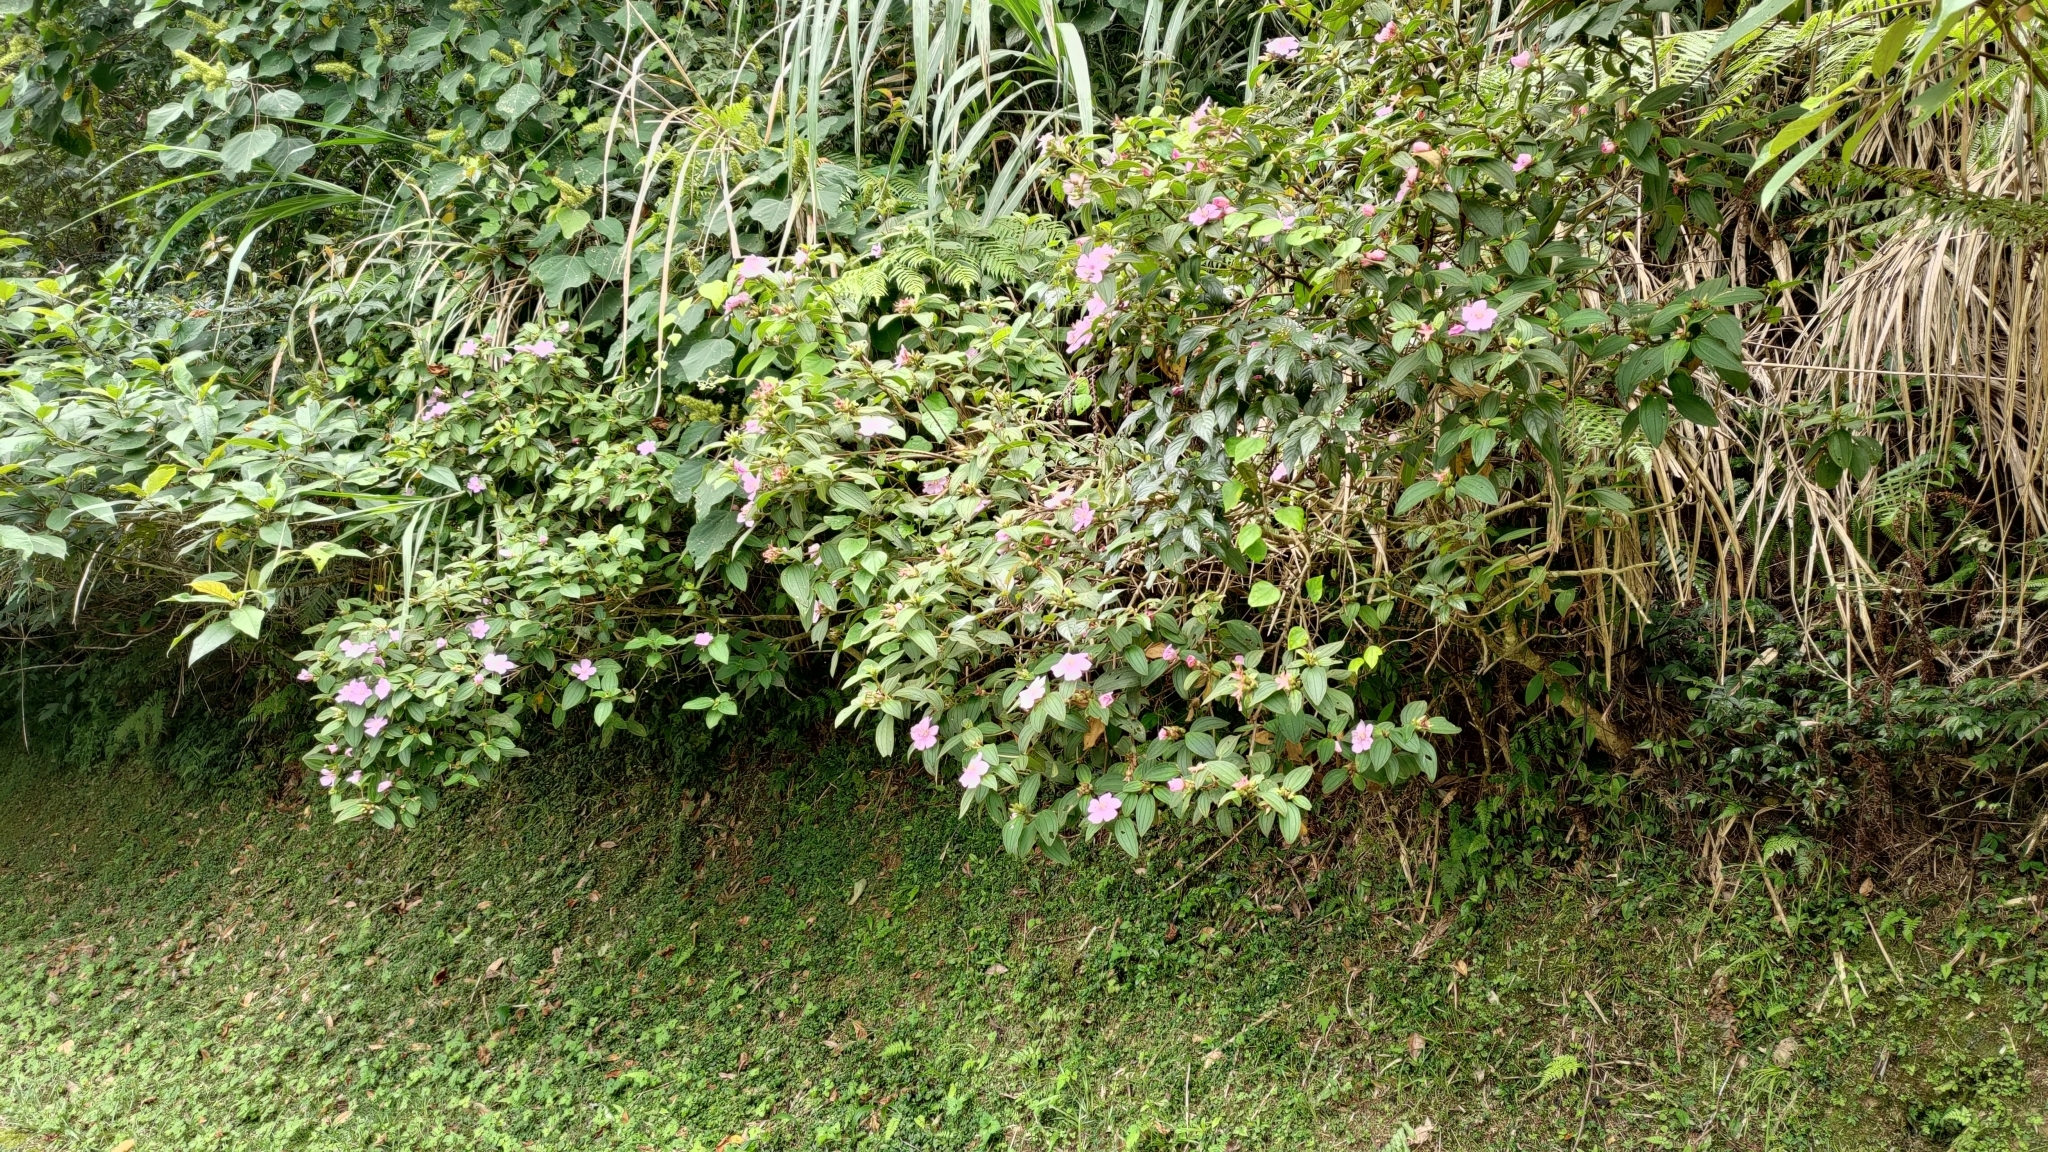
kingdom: Plantae
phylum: Tracheophyta
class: Magnoliopsida
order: Myrtales
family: Melastomataceae
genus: Melastoma
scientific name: Melastoma malabathricum
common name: Indian-rhododendron
